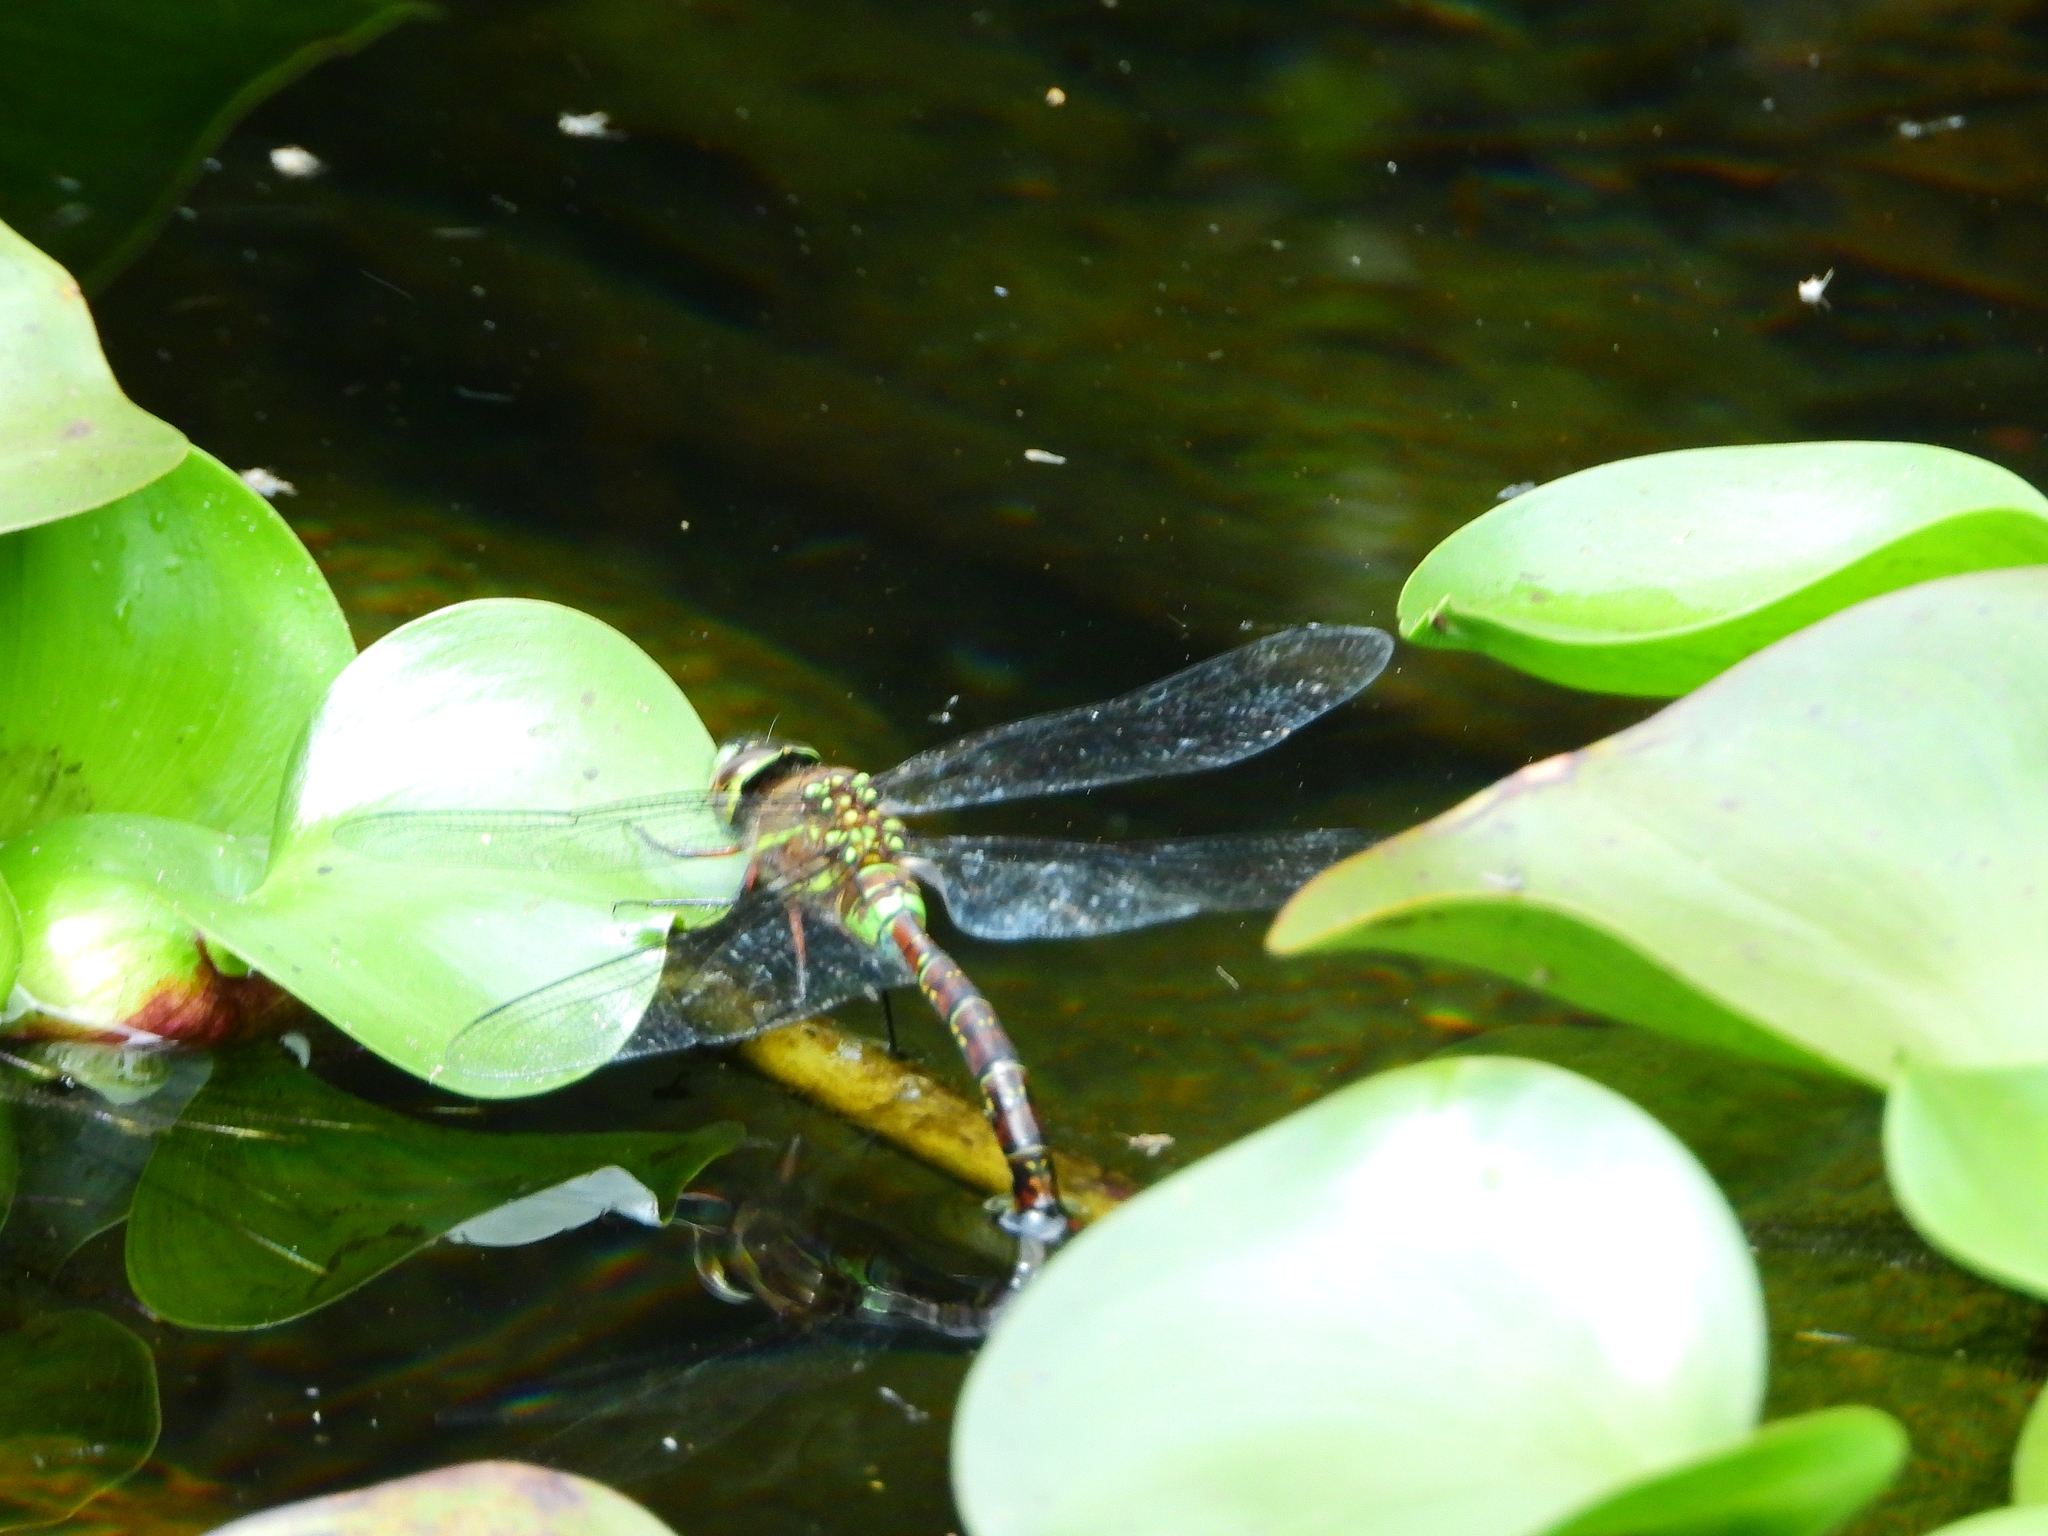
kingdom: Animalia
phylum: Arthropoda
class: Insecta
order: Odonata
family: Aeshnidae
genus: Rhionaeschna
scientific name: Rhionaeschna jalapensis
